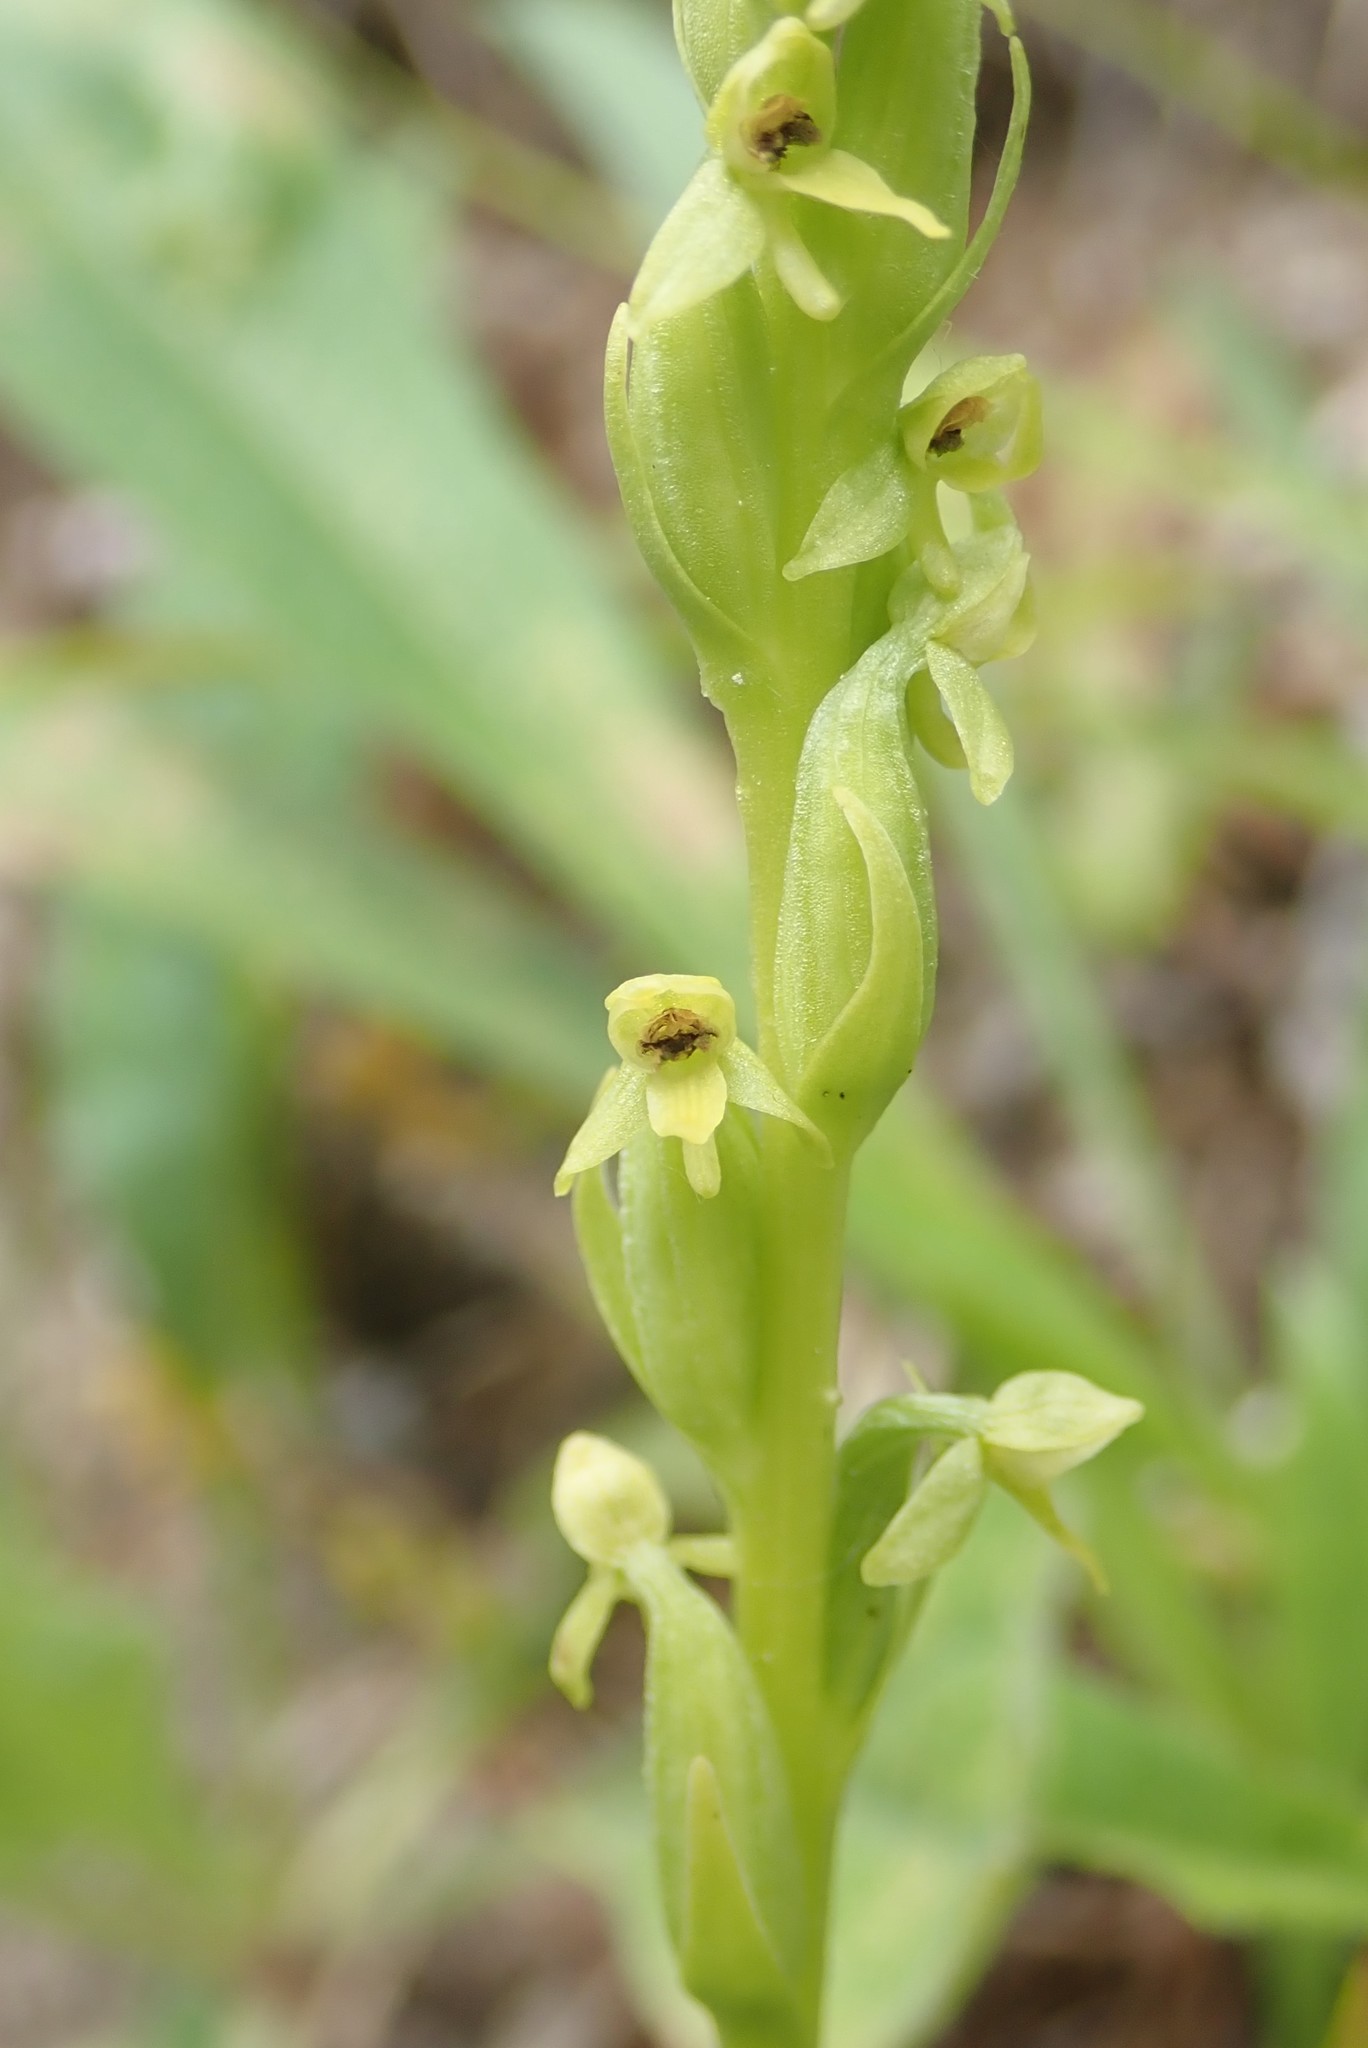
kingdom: Plantae
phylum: Tracheophyta
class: Liliopsida
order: Asparagales
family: Orchidaceae
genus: Platanthera
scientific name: Platanthera huronensis
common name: Fragrant green orchid
